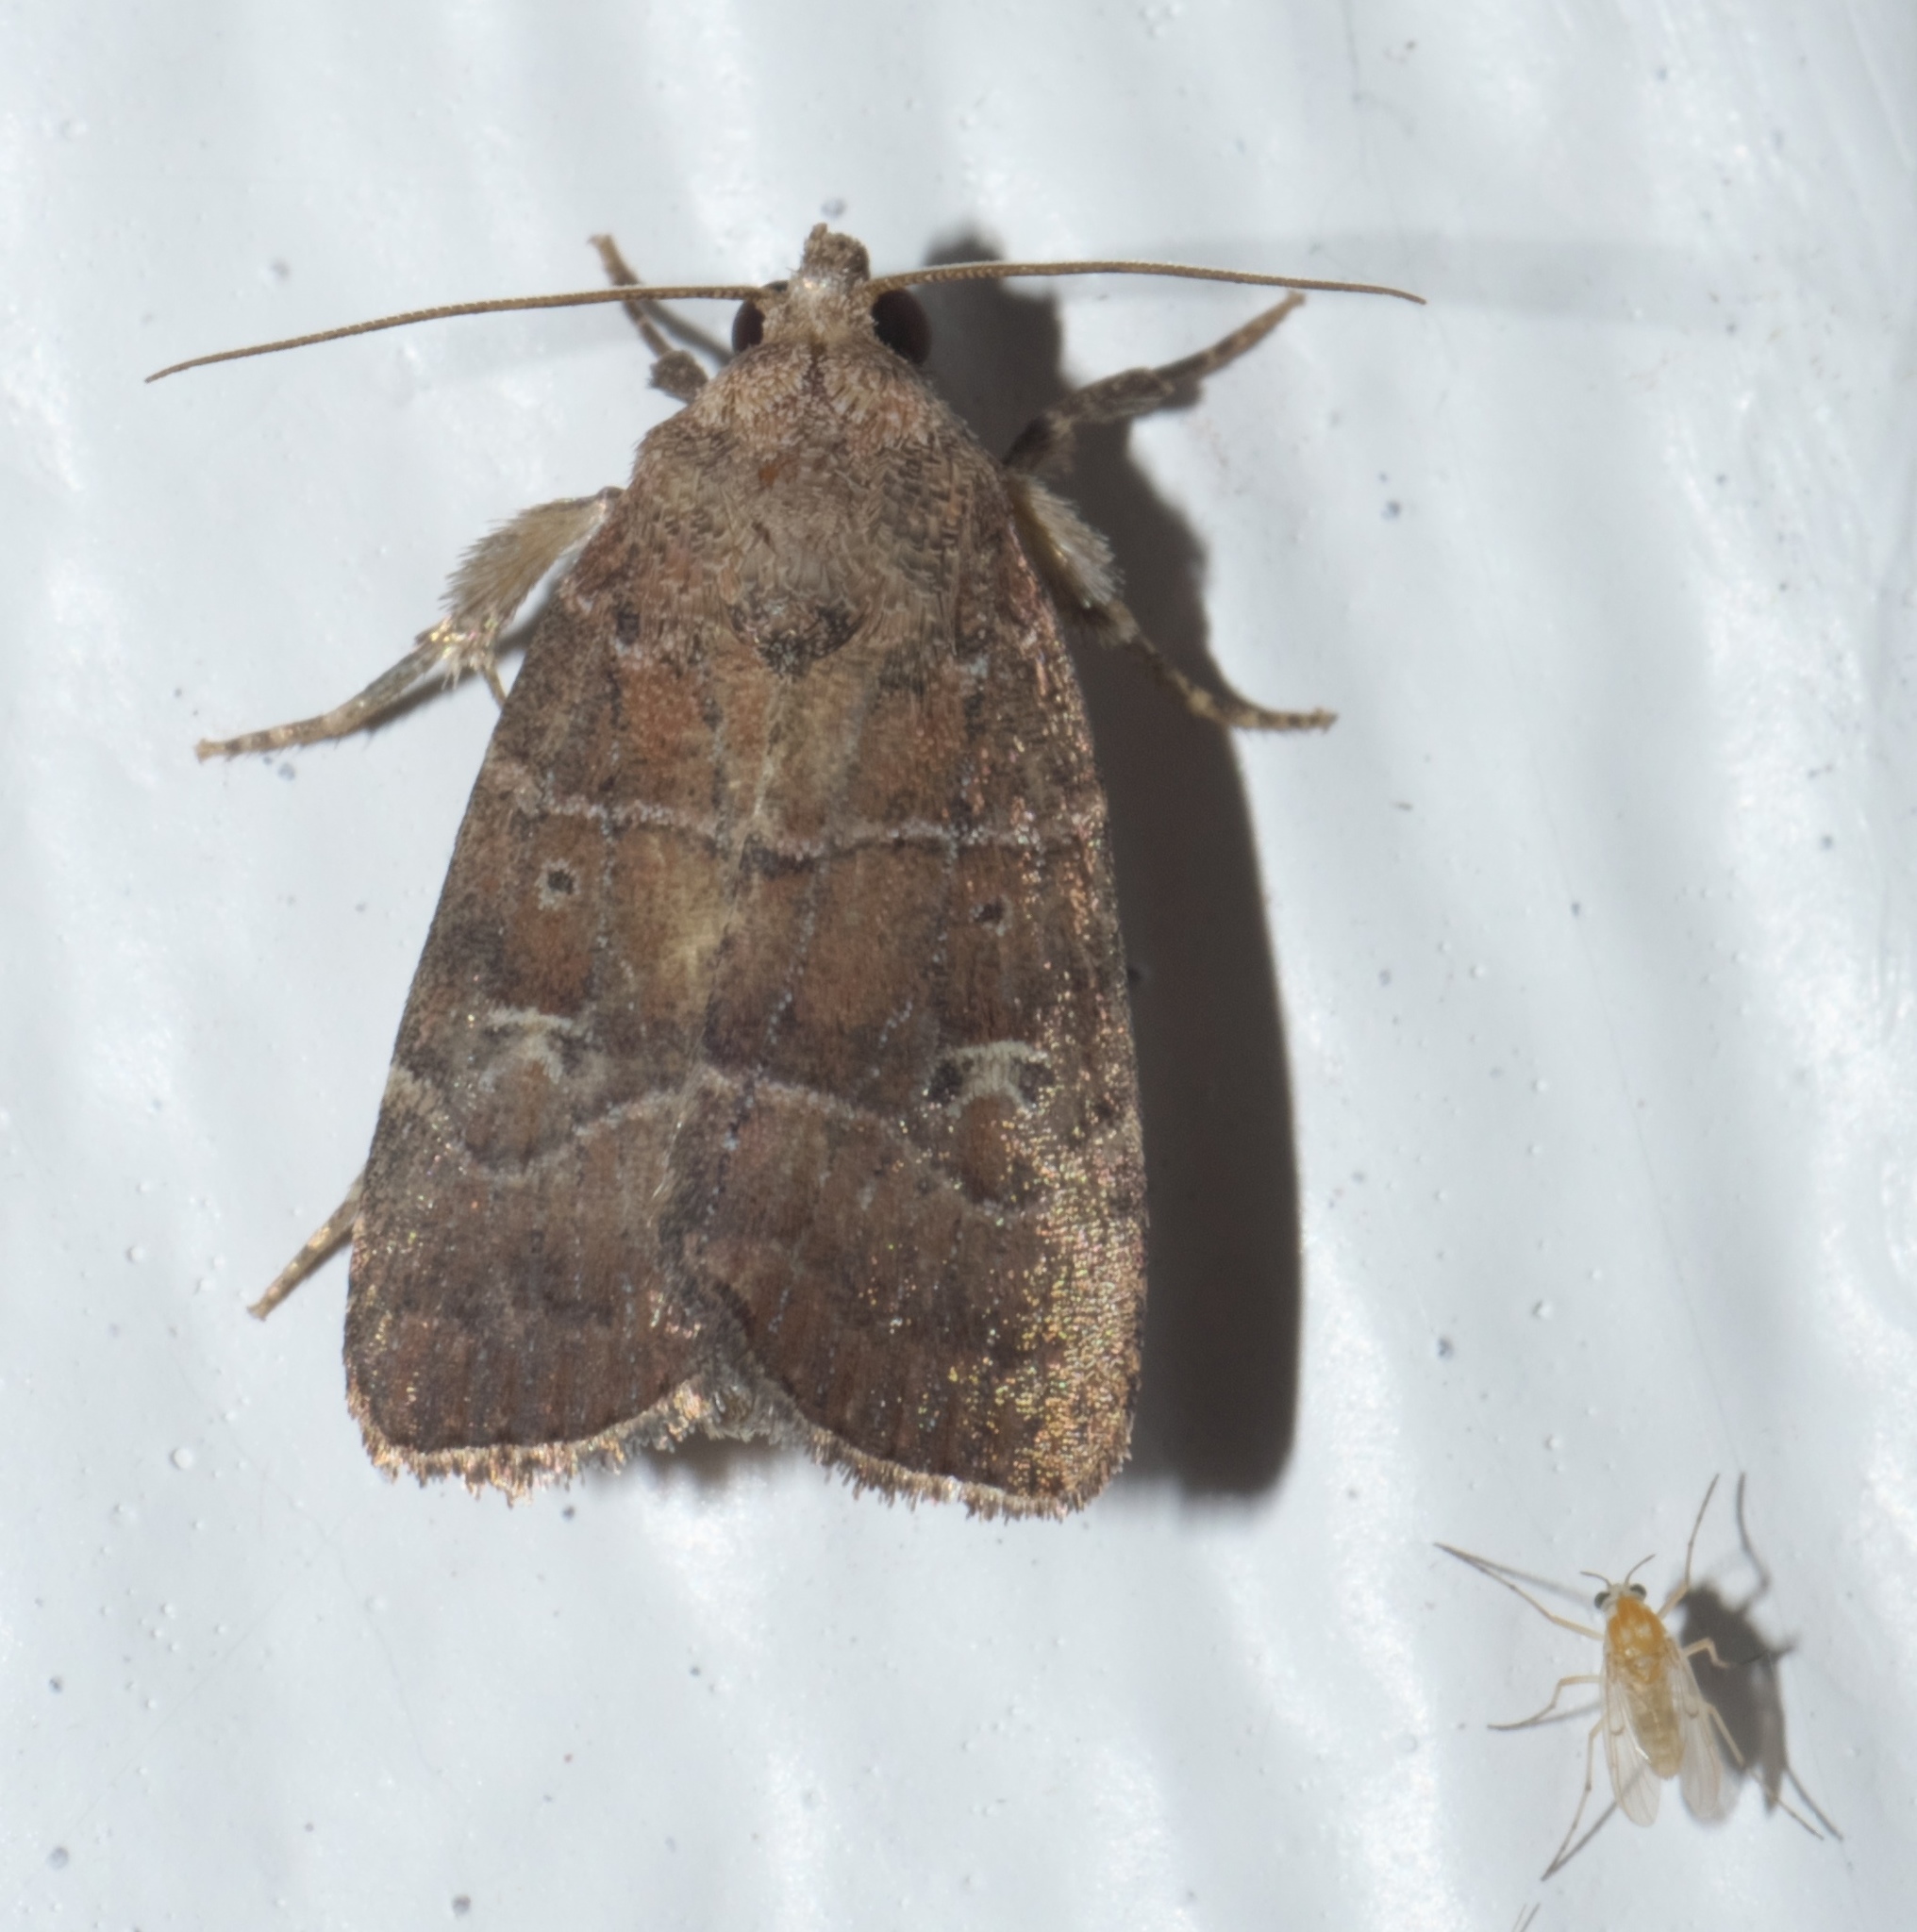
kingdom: Animalia
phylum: Arthropoda
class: Insecta
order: Lepidoptera
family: Noctuidae
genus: Elaphria
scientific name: Elaphria grata
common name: Grateful midget moth
